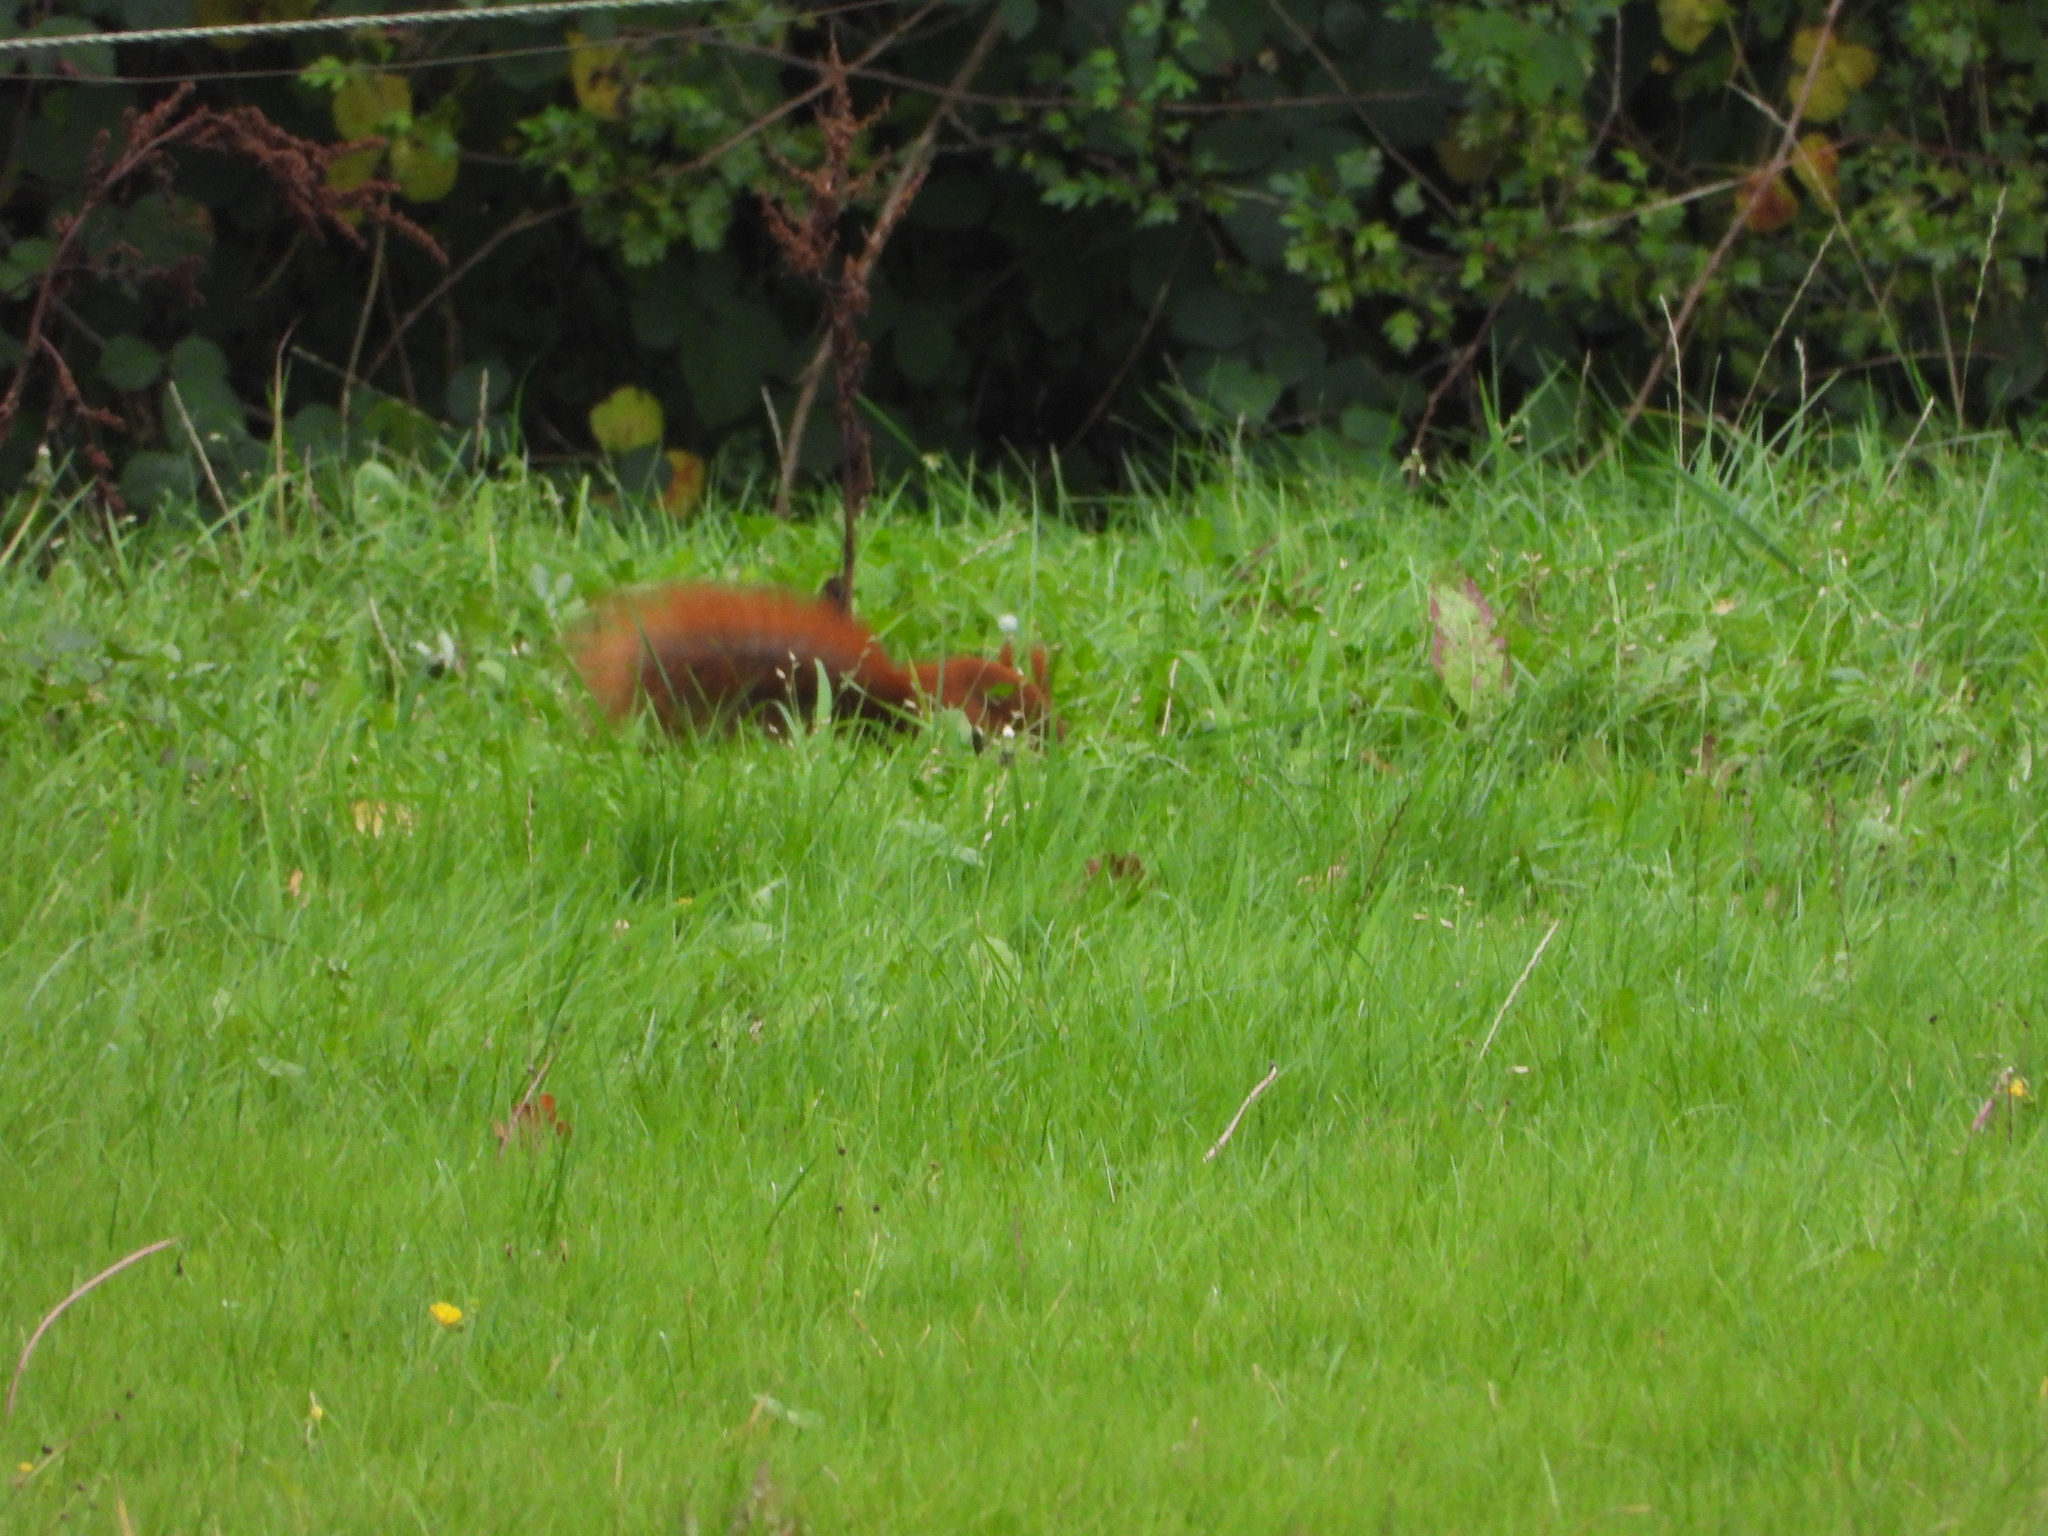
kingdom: Animalia
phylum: Chordata
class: Mammalia
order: Rodentia
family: Sciuridae
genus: Sciurus
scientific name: Sciurus vulgaris
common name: Eurasian red squirrel
